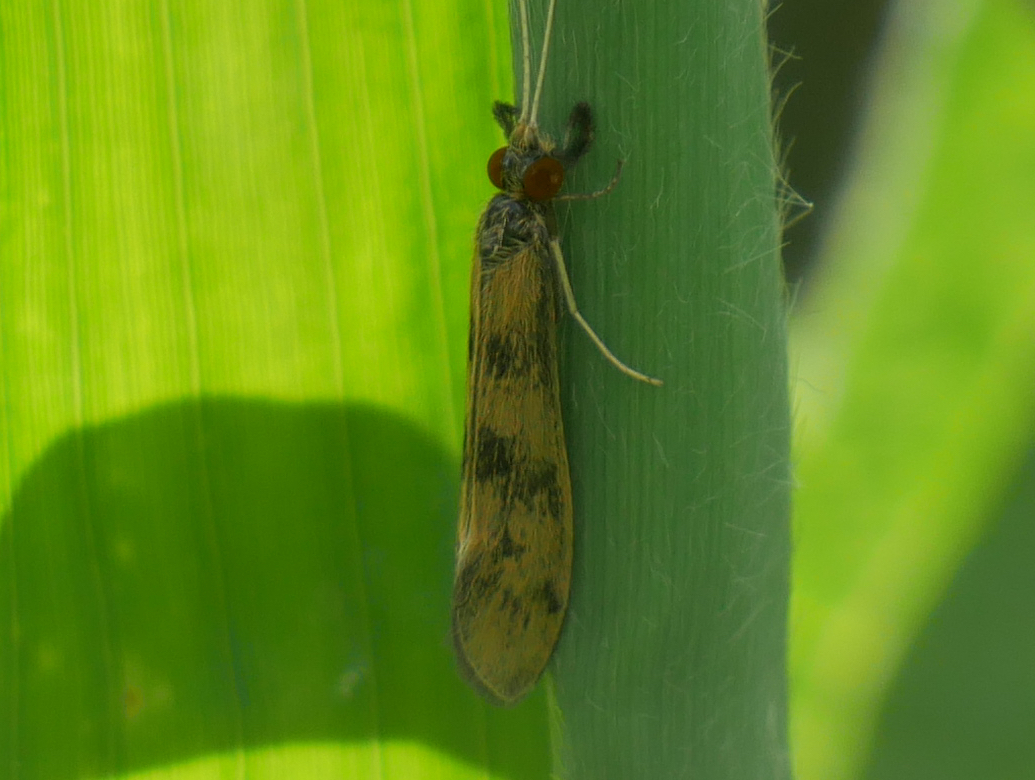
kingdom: Animalia
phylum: Arthropoda
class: Insecta
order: Trichoptera
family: Leptoceridae
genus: Mystacides
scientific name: Mystacides longicornis
